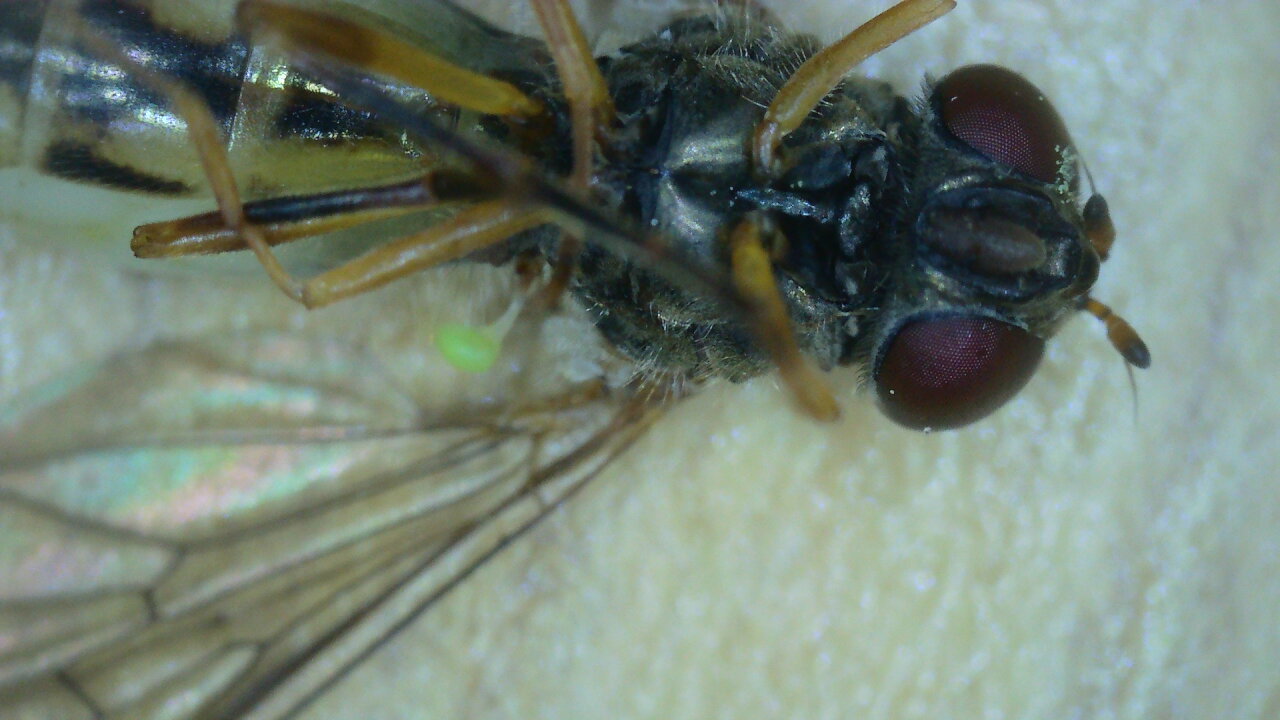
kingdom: Animalia
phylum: Arthropoda
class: Insecta
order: Diptera
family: Syrphidae
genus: Melanostoma
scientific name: Melanostoma
